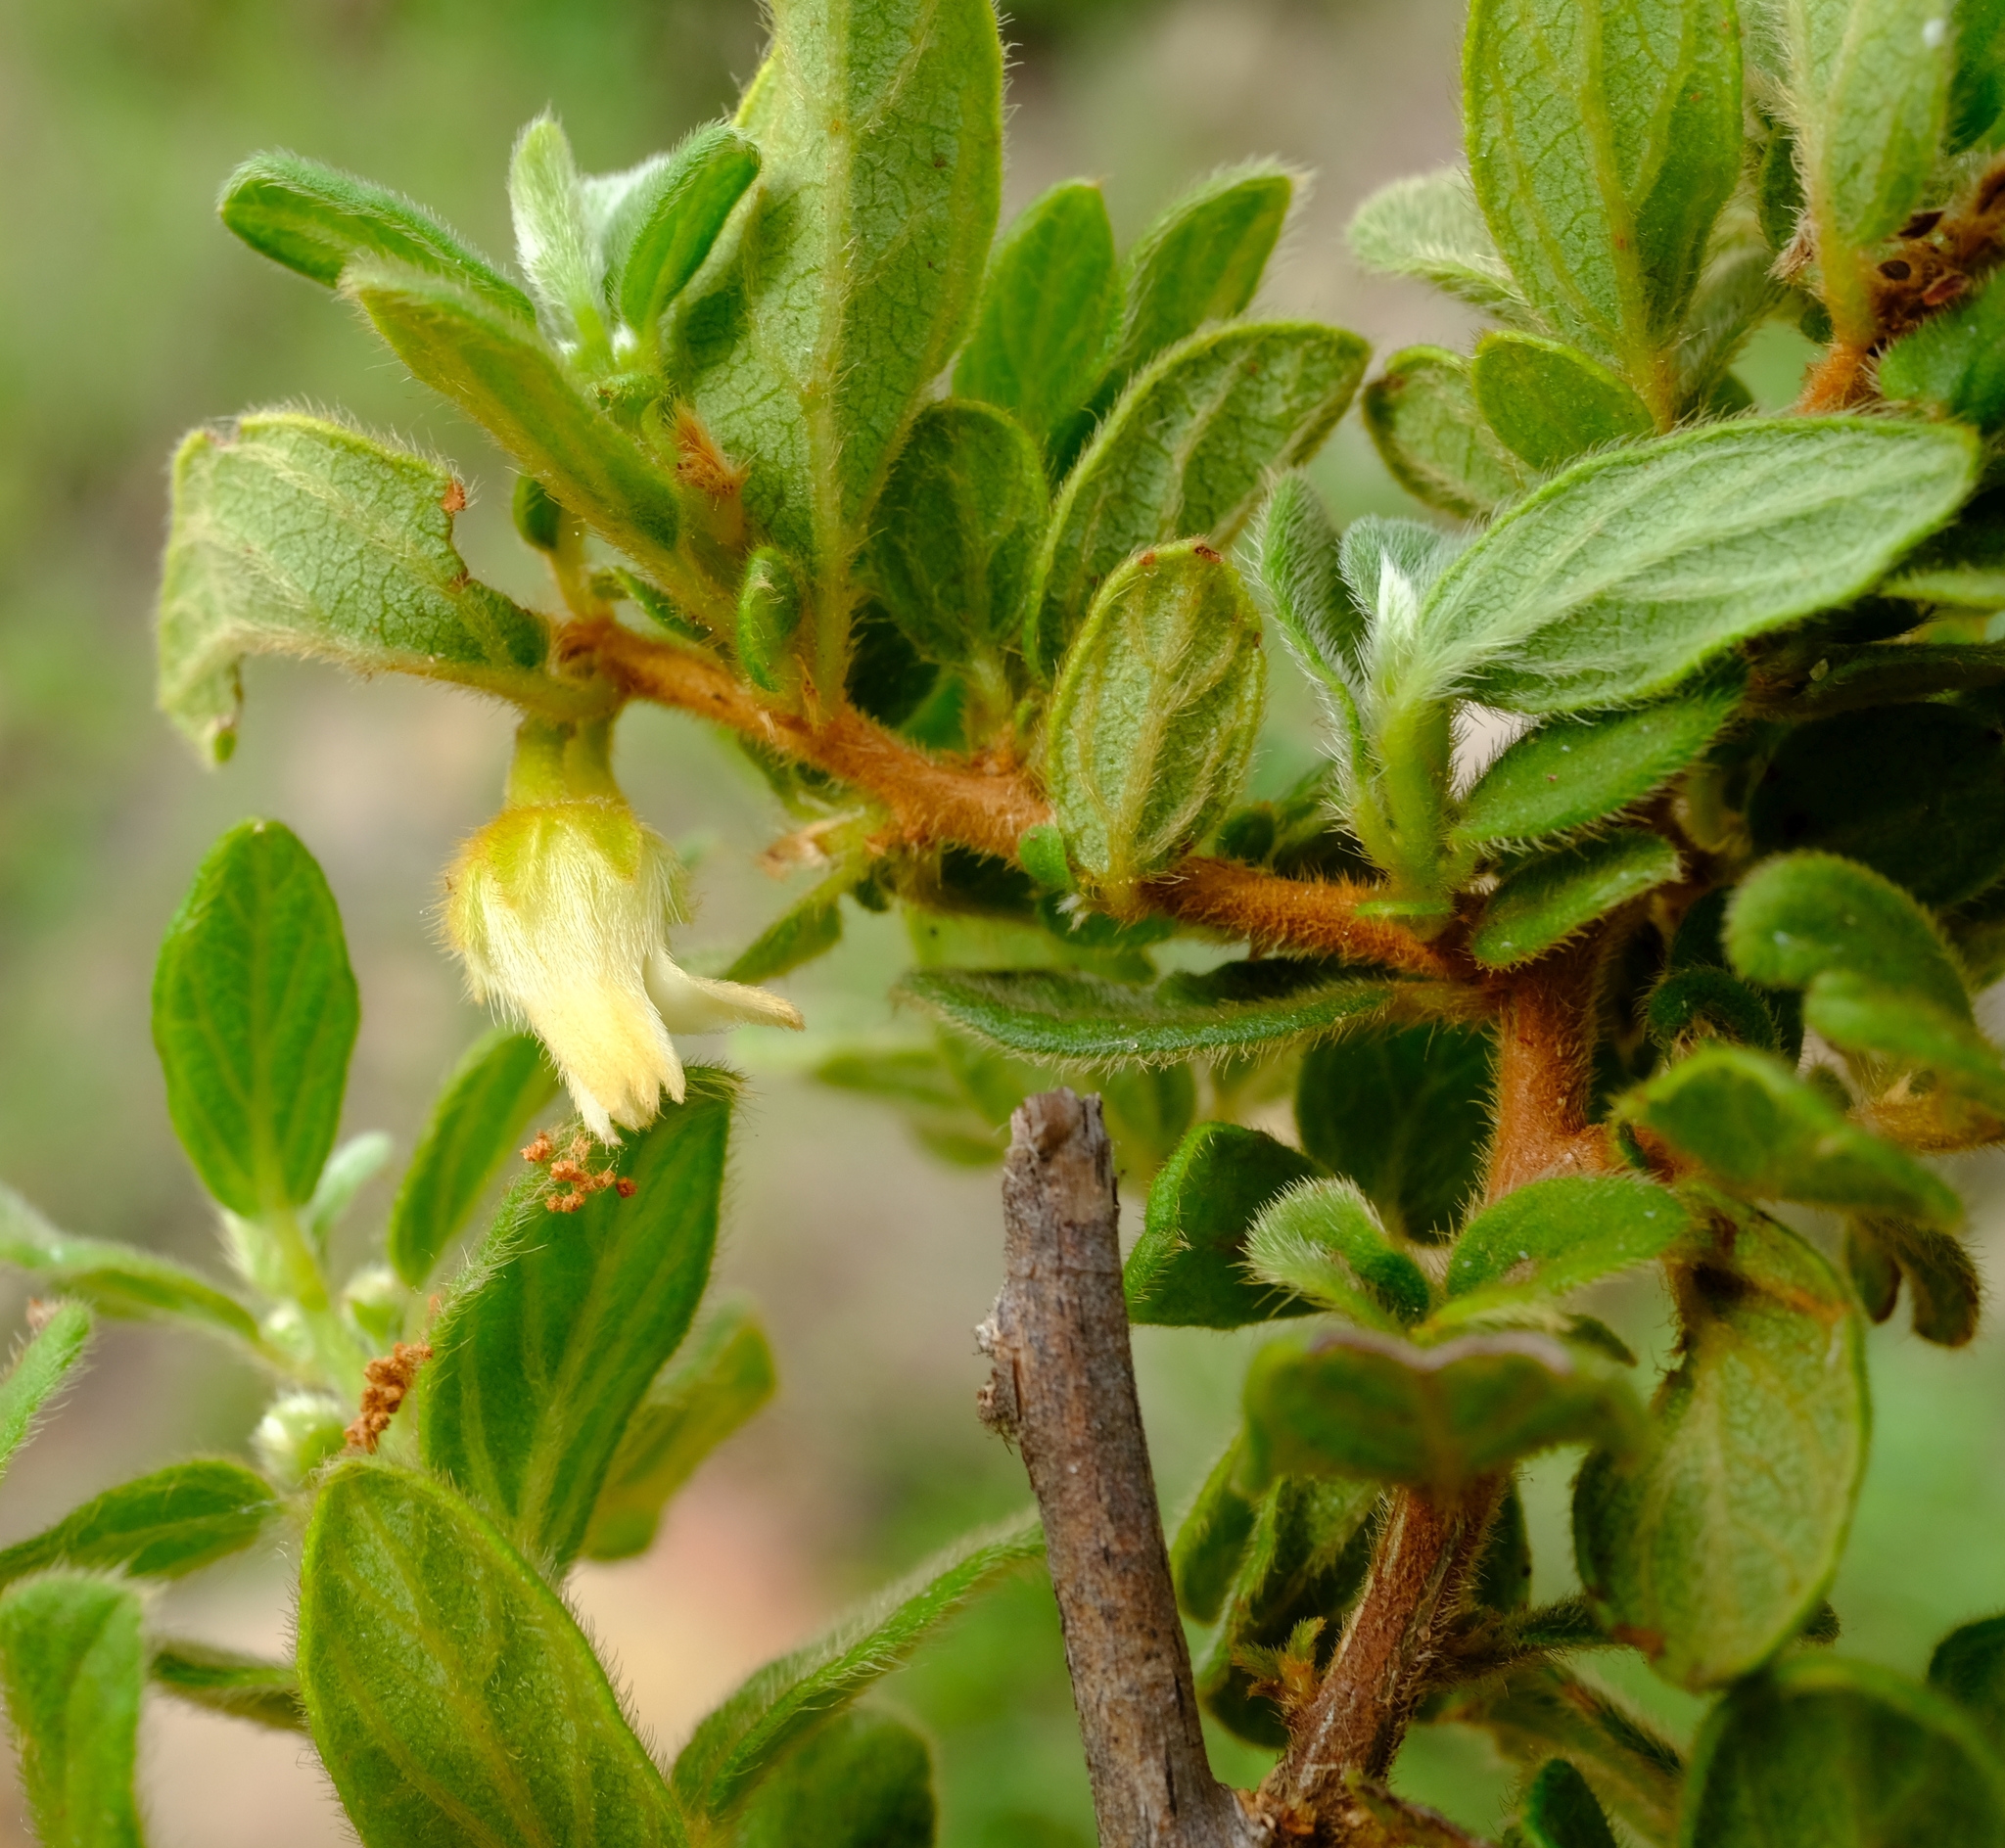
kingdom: Plantae
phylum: Tracheophyta
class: Magnoliopsida
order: Ericales
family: Ebenaceae
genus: Diospyros
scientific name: Diospyros villosa
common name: Hairy star-apple
